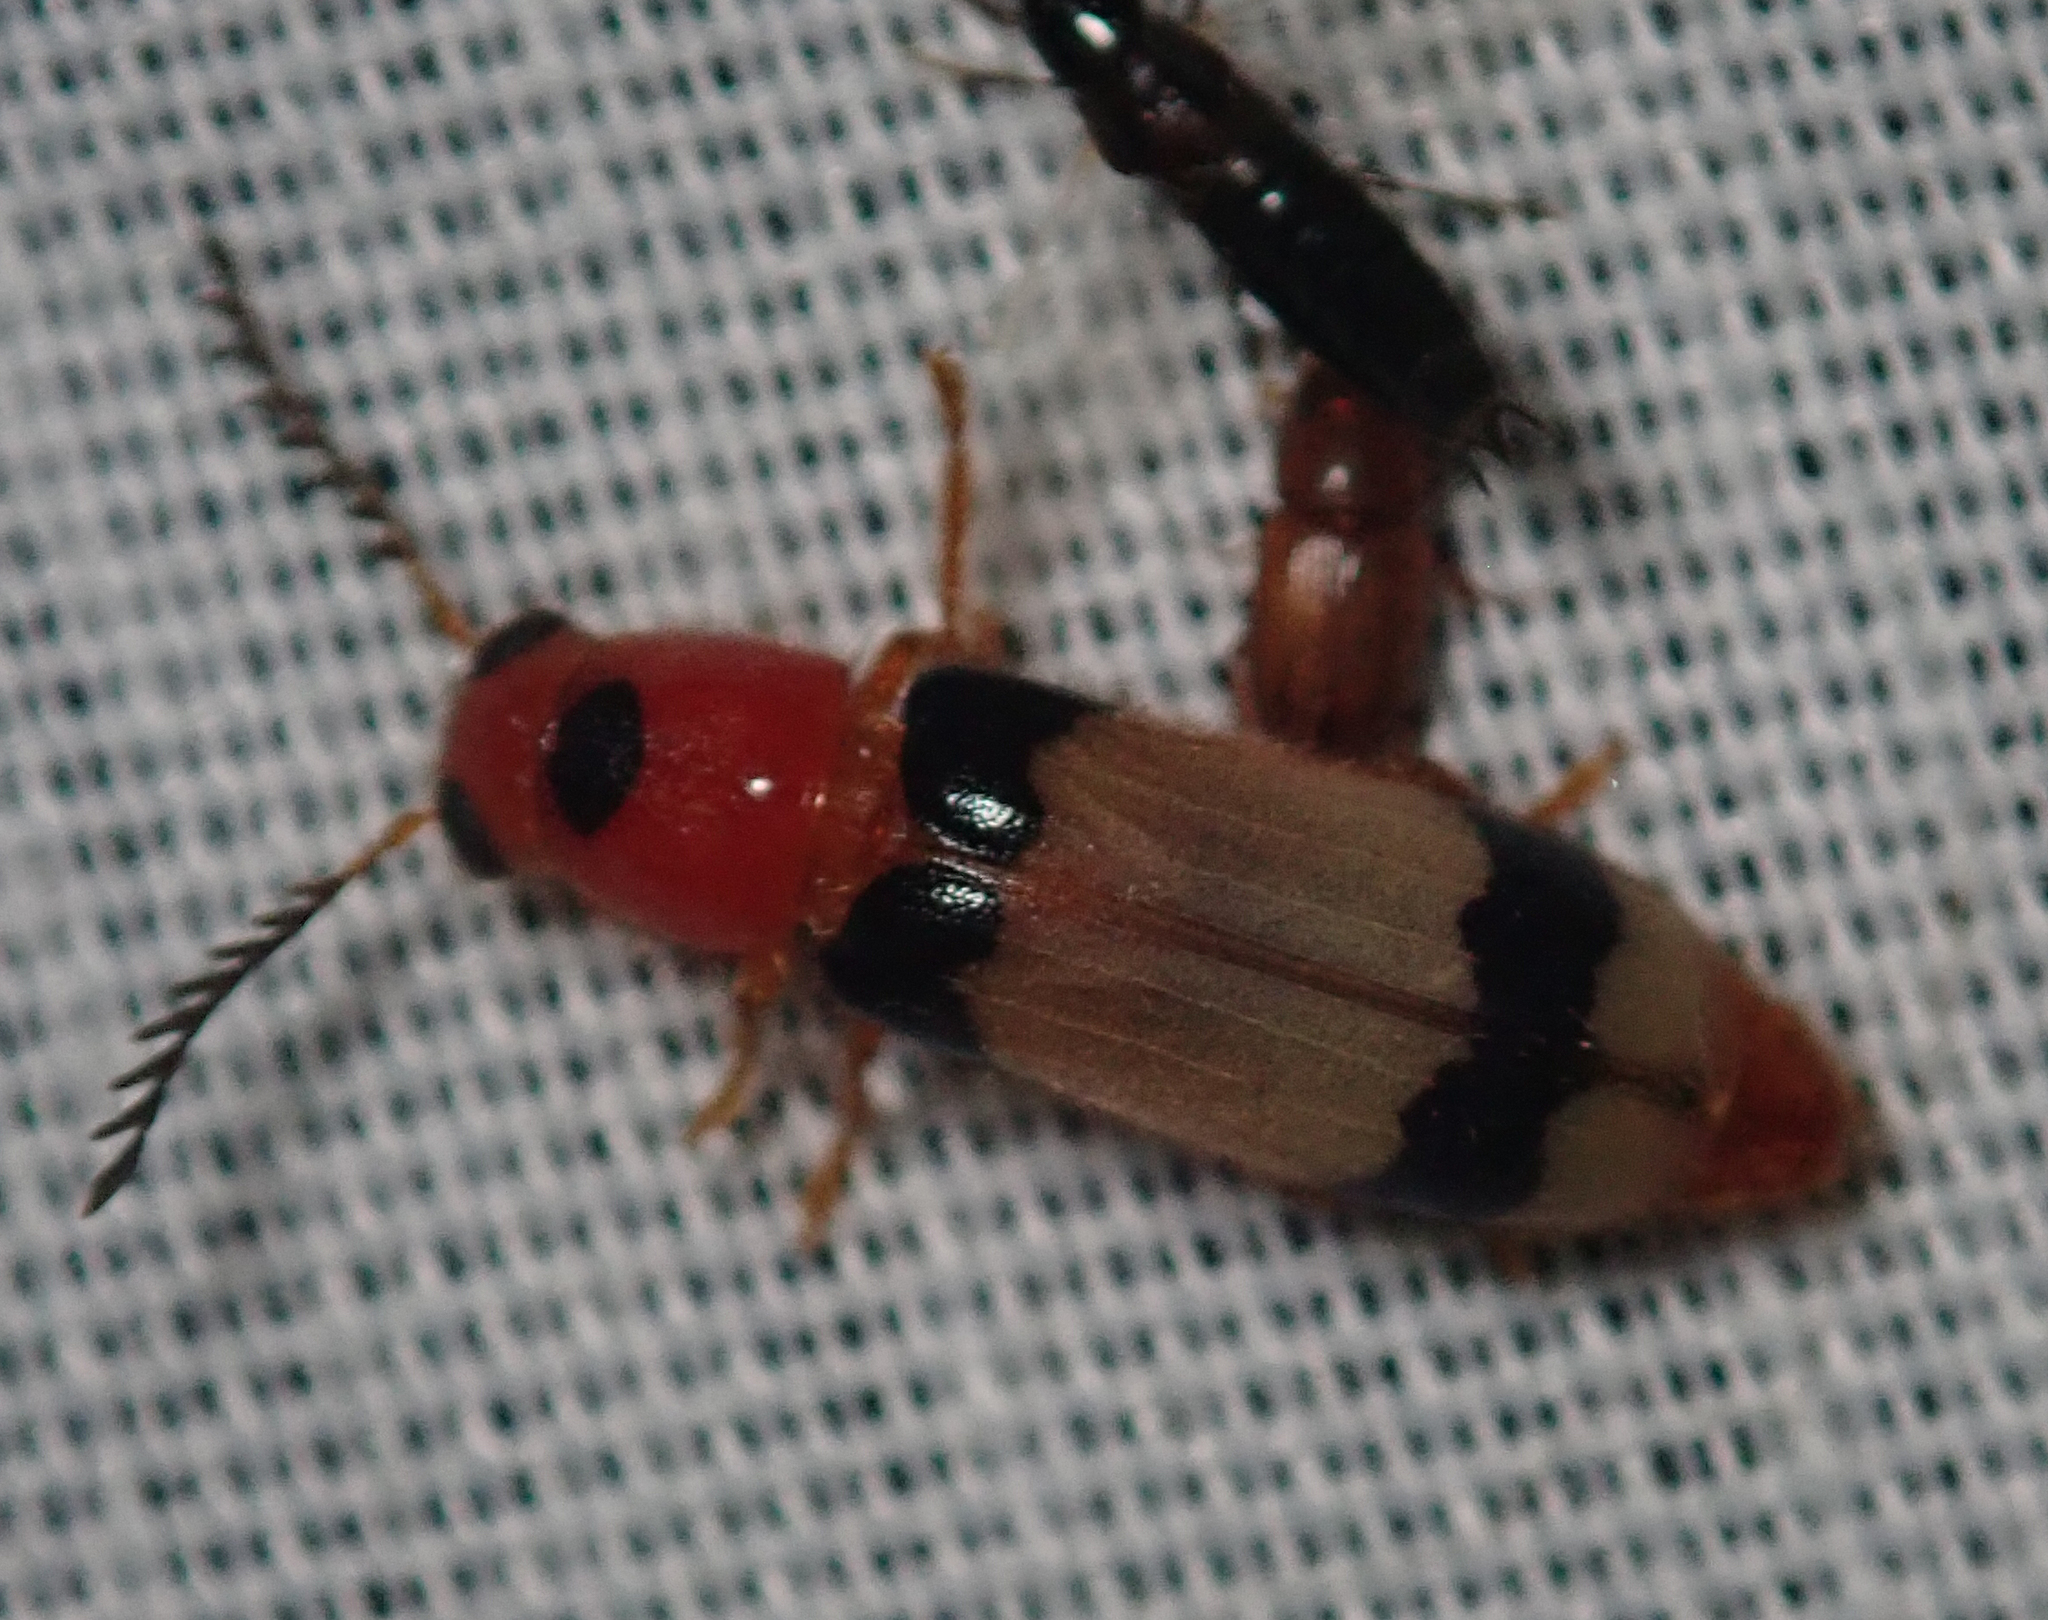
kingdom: Animalia
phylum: Arthropoda
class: Insecta
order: Coleoptera
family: Cleridae
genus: Tenerus
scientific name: Tenerus
